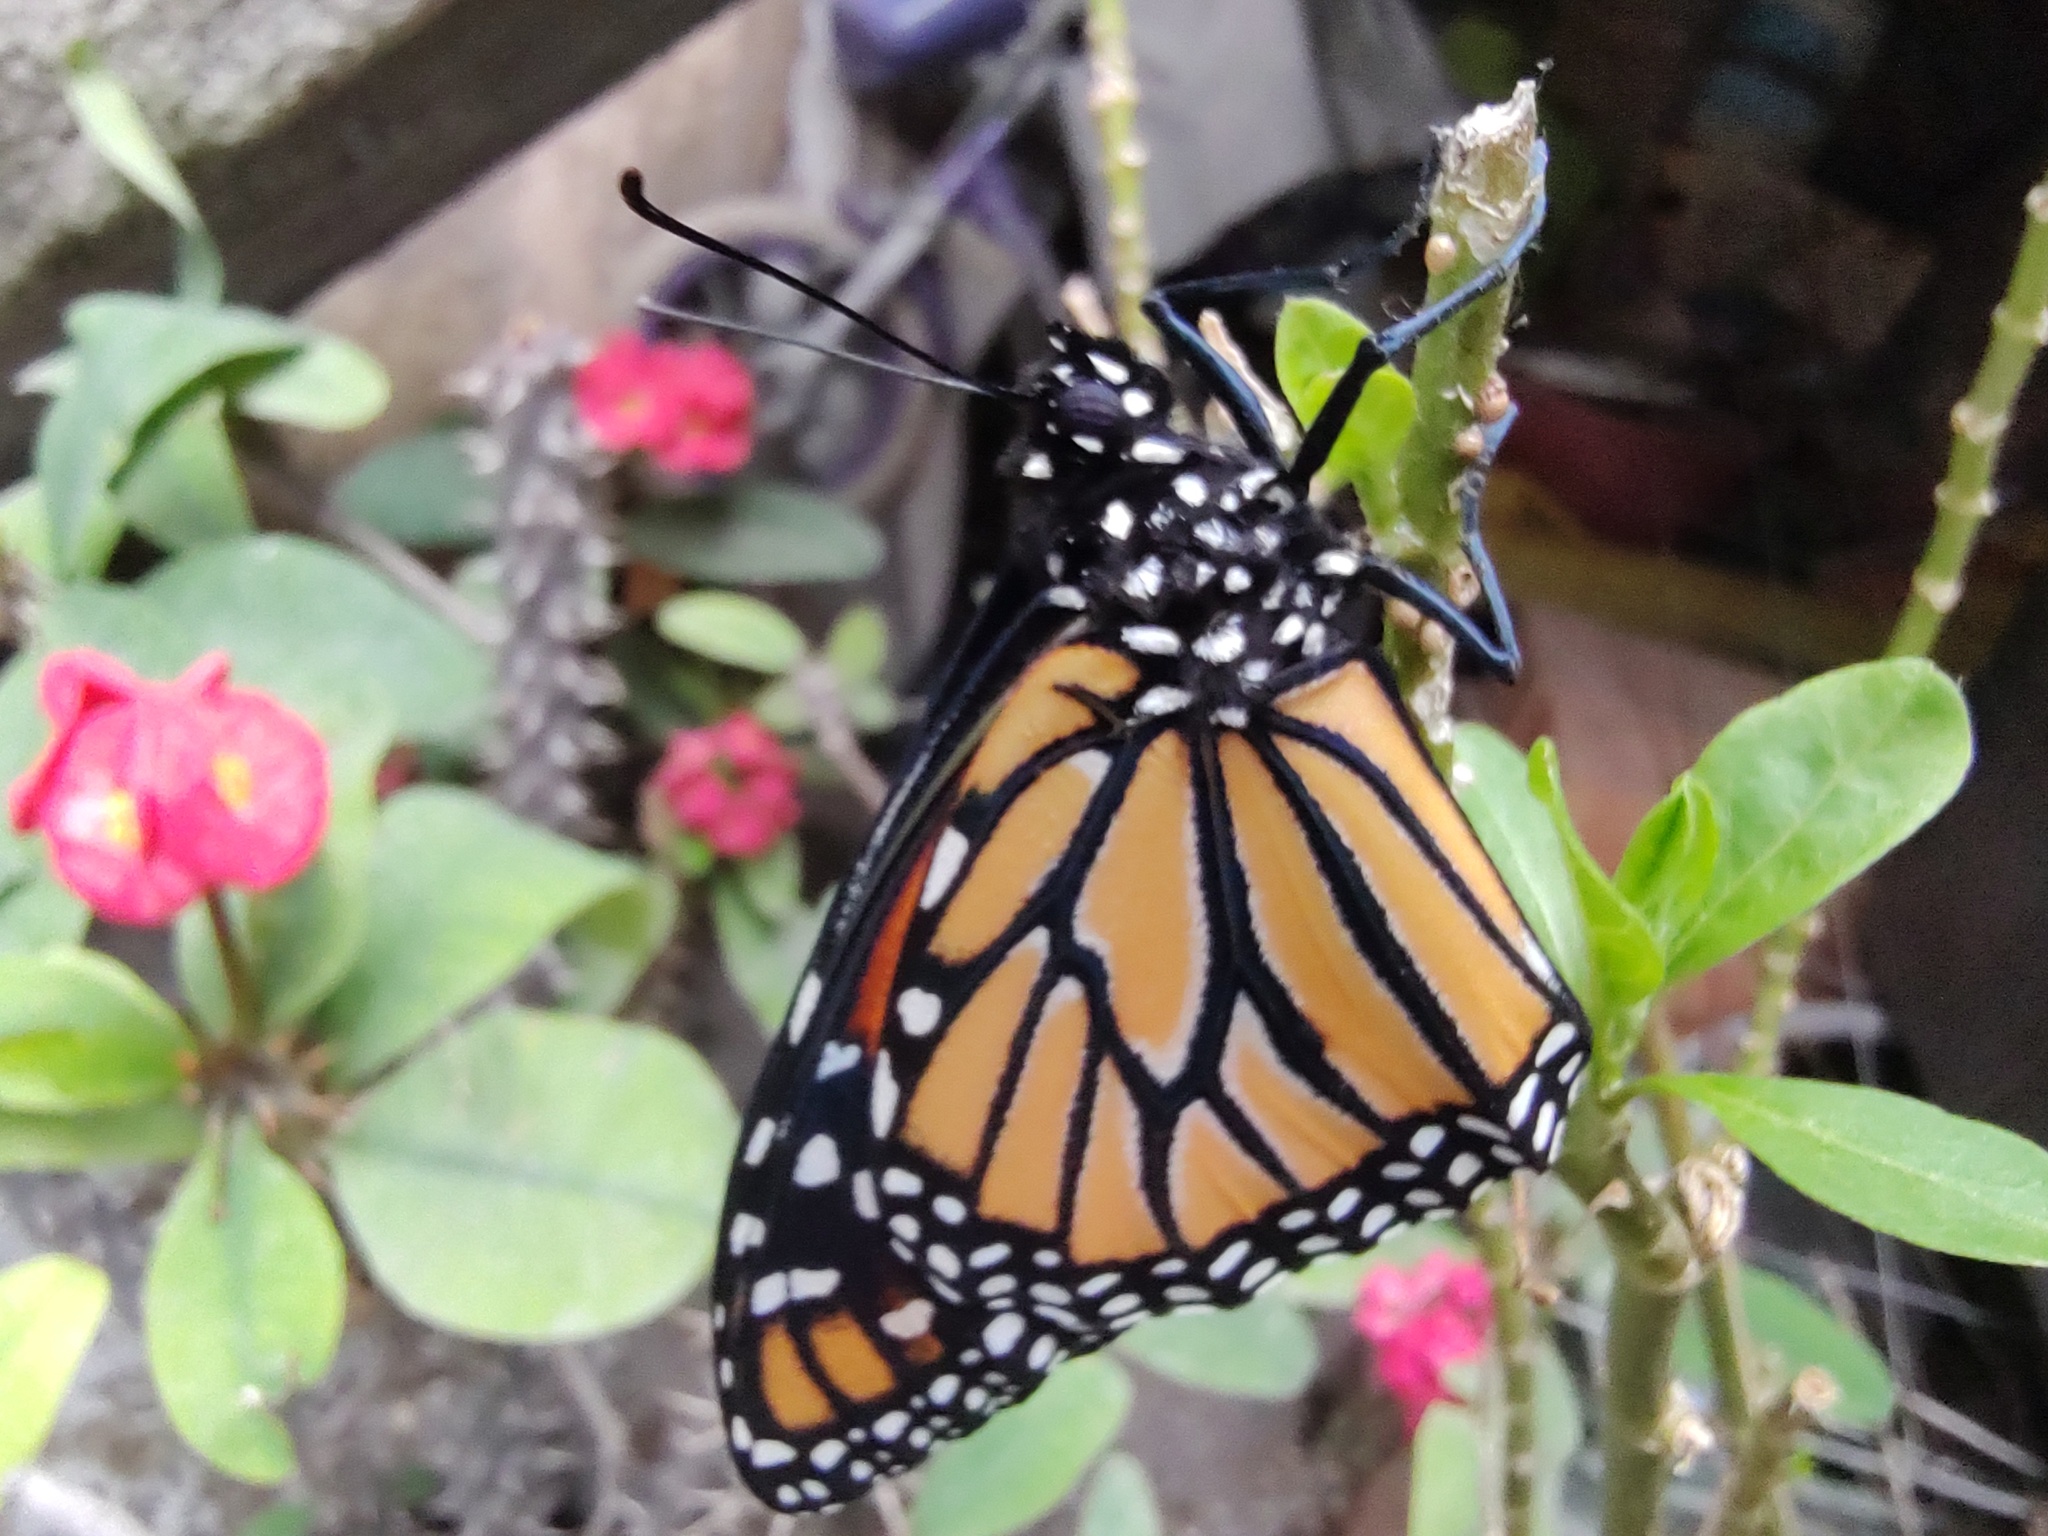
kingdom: Animalia
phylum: Arthropoda
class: Insecta
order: Lepidoptera
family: Nymphalidae
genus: Danaus
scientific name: Danaus plexippus
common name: Monarch
